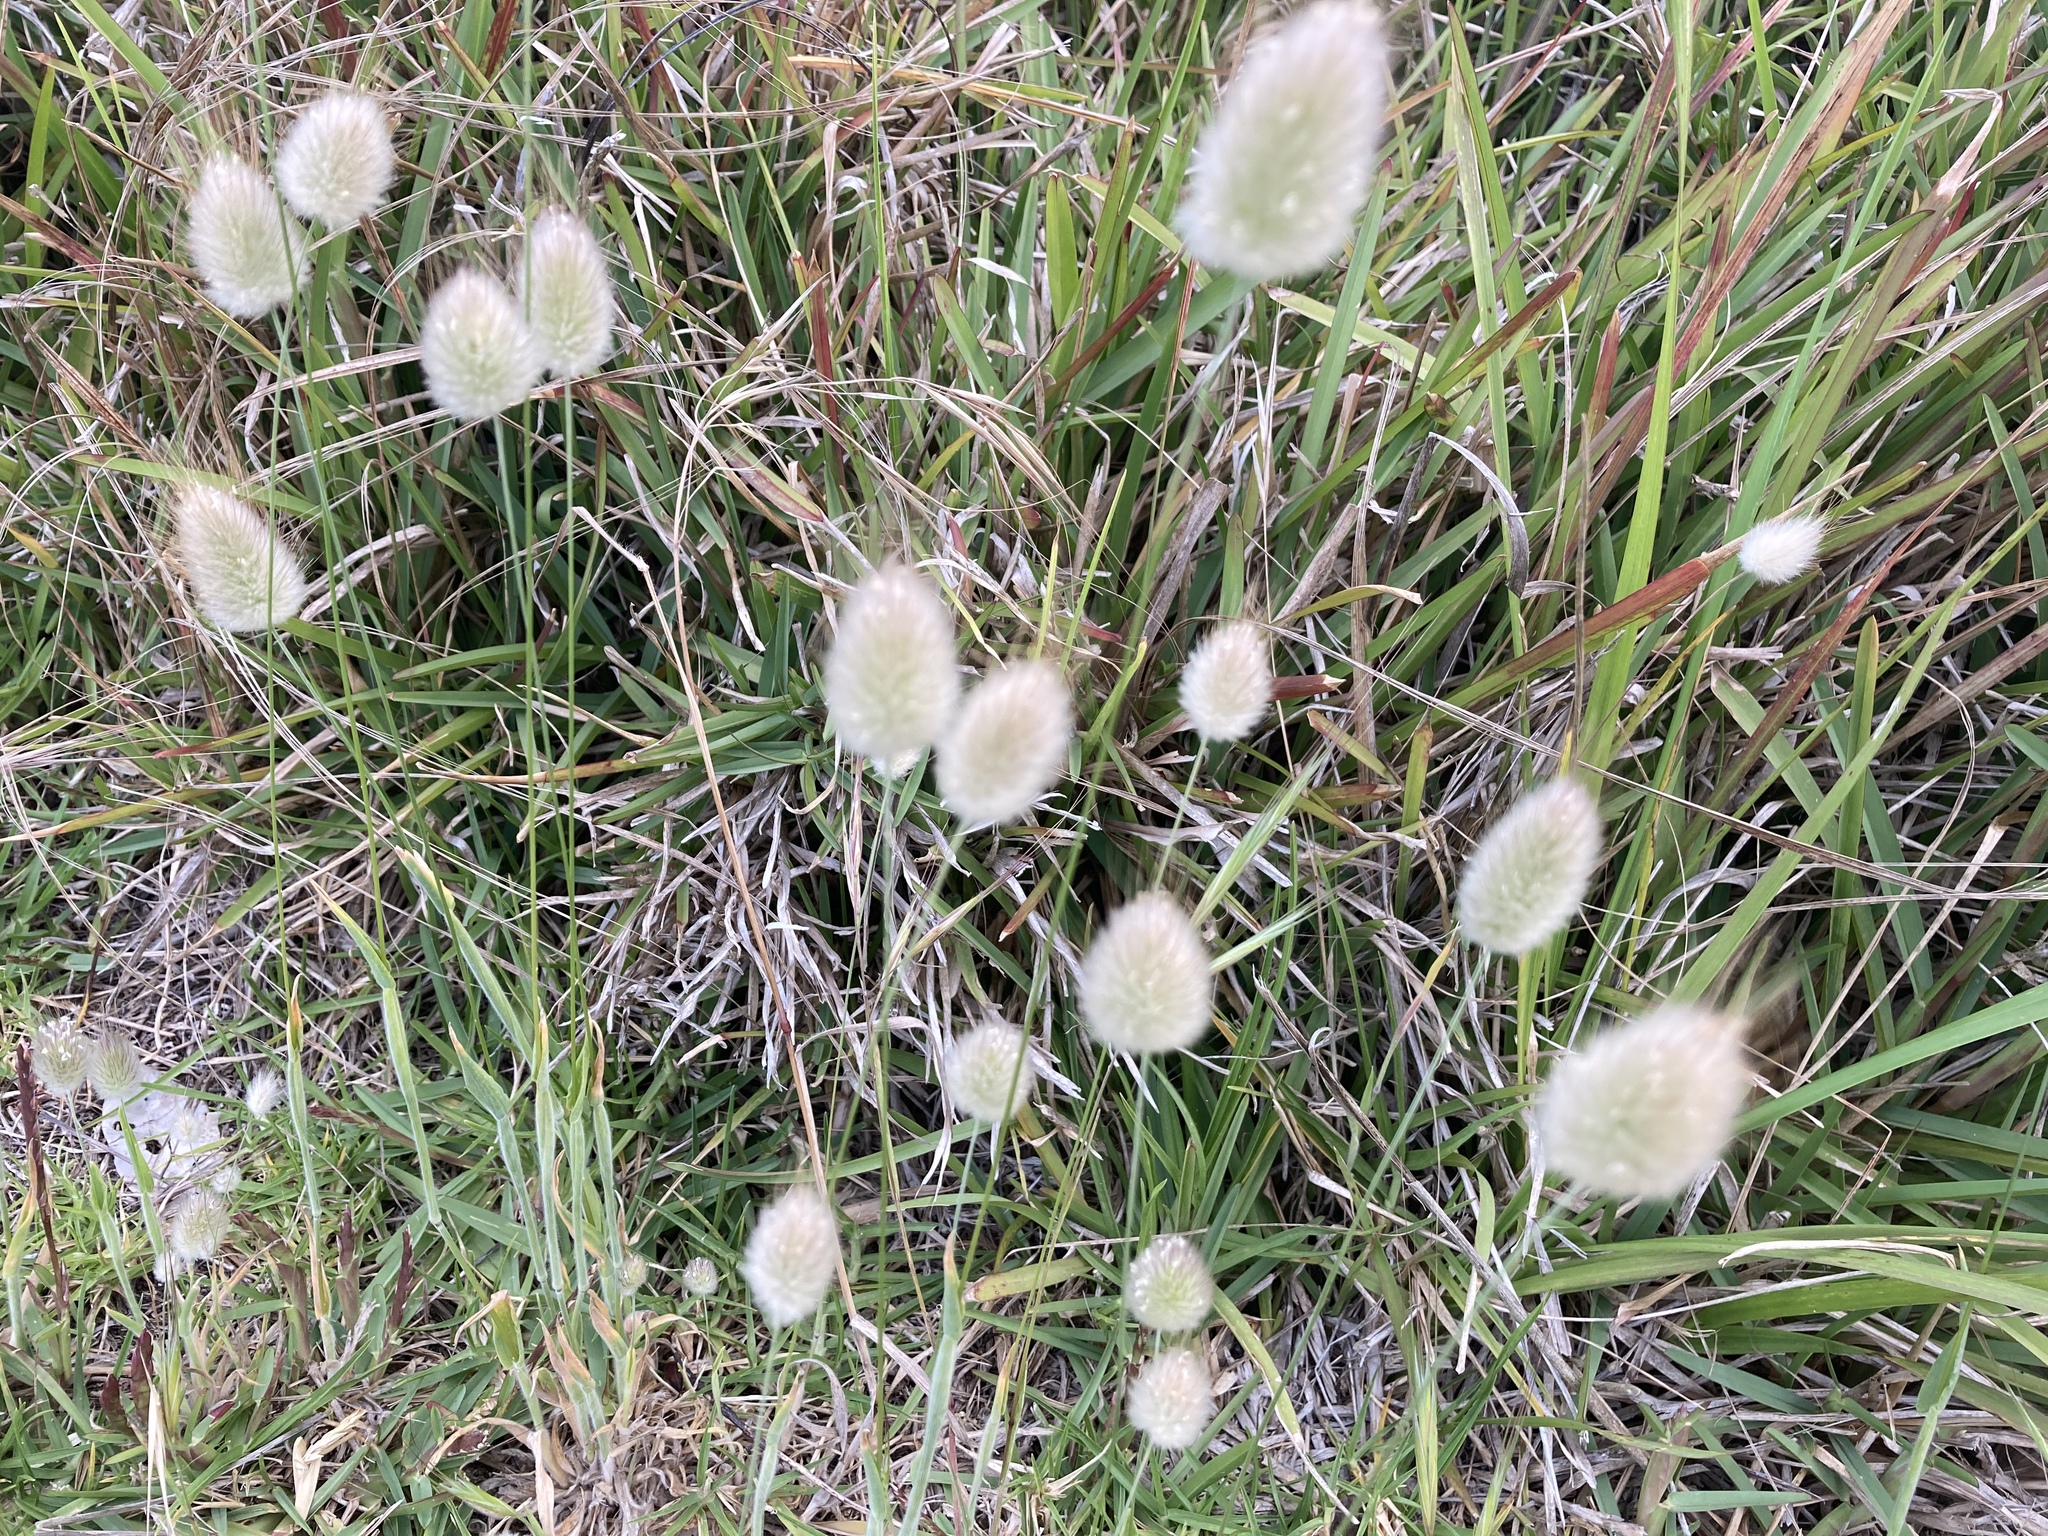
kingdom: Plantae
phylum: Tracheophyta
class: Liliopsida
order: Poales
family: Poaceae
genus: Lagurus
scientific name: Lagurus ovatus
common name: Hare's-tail
